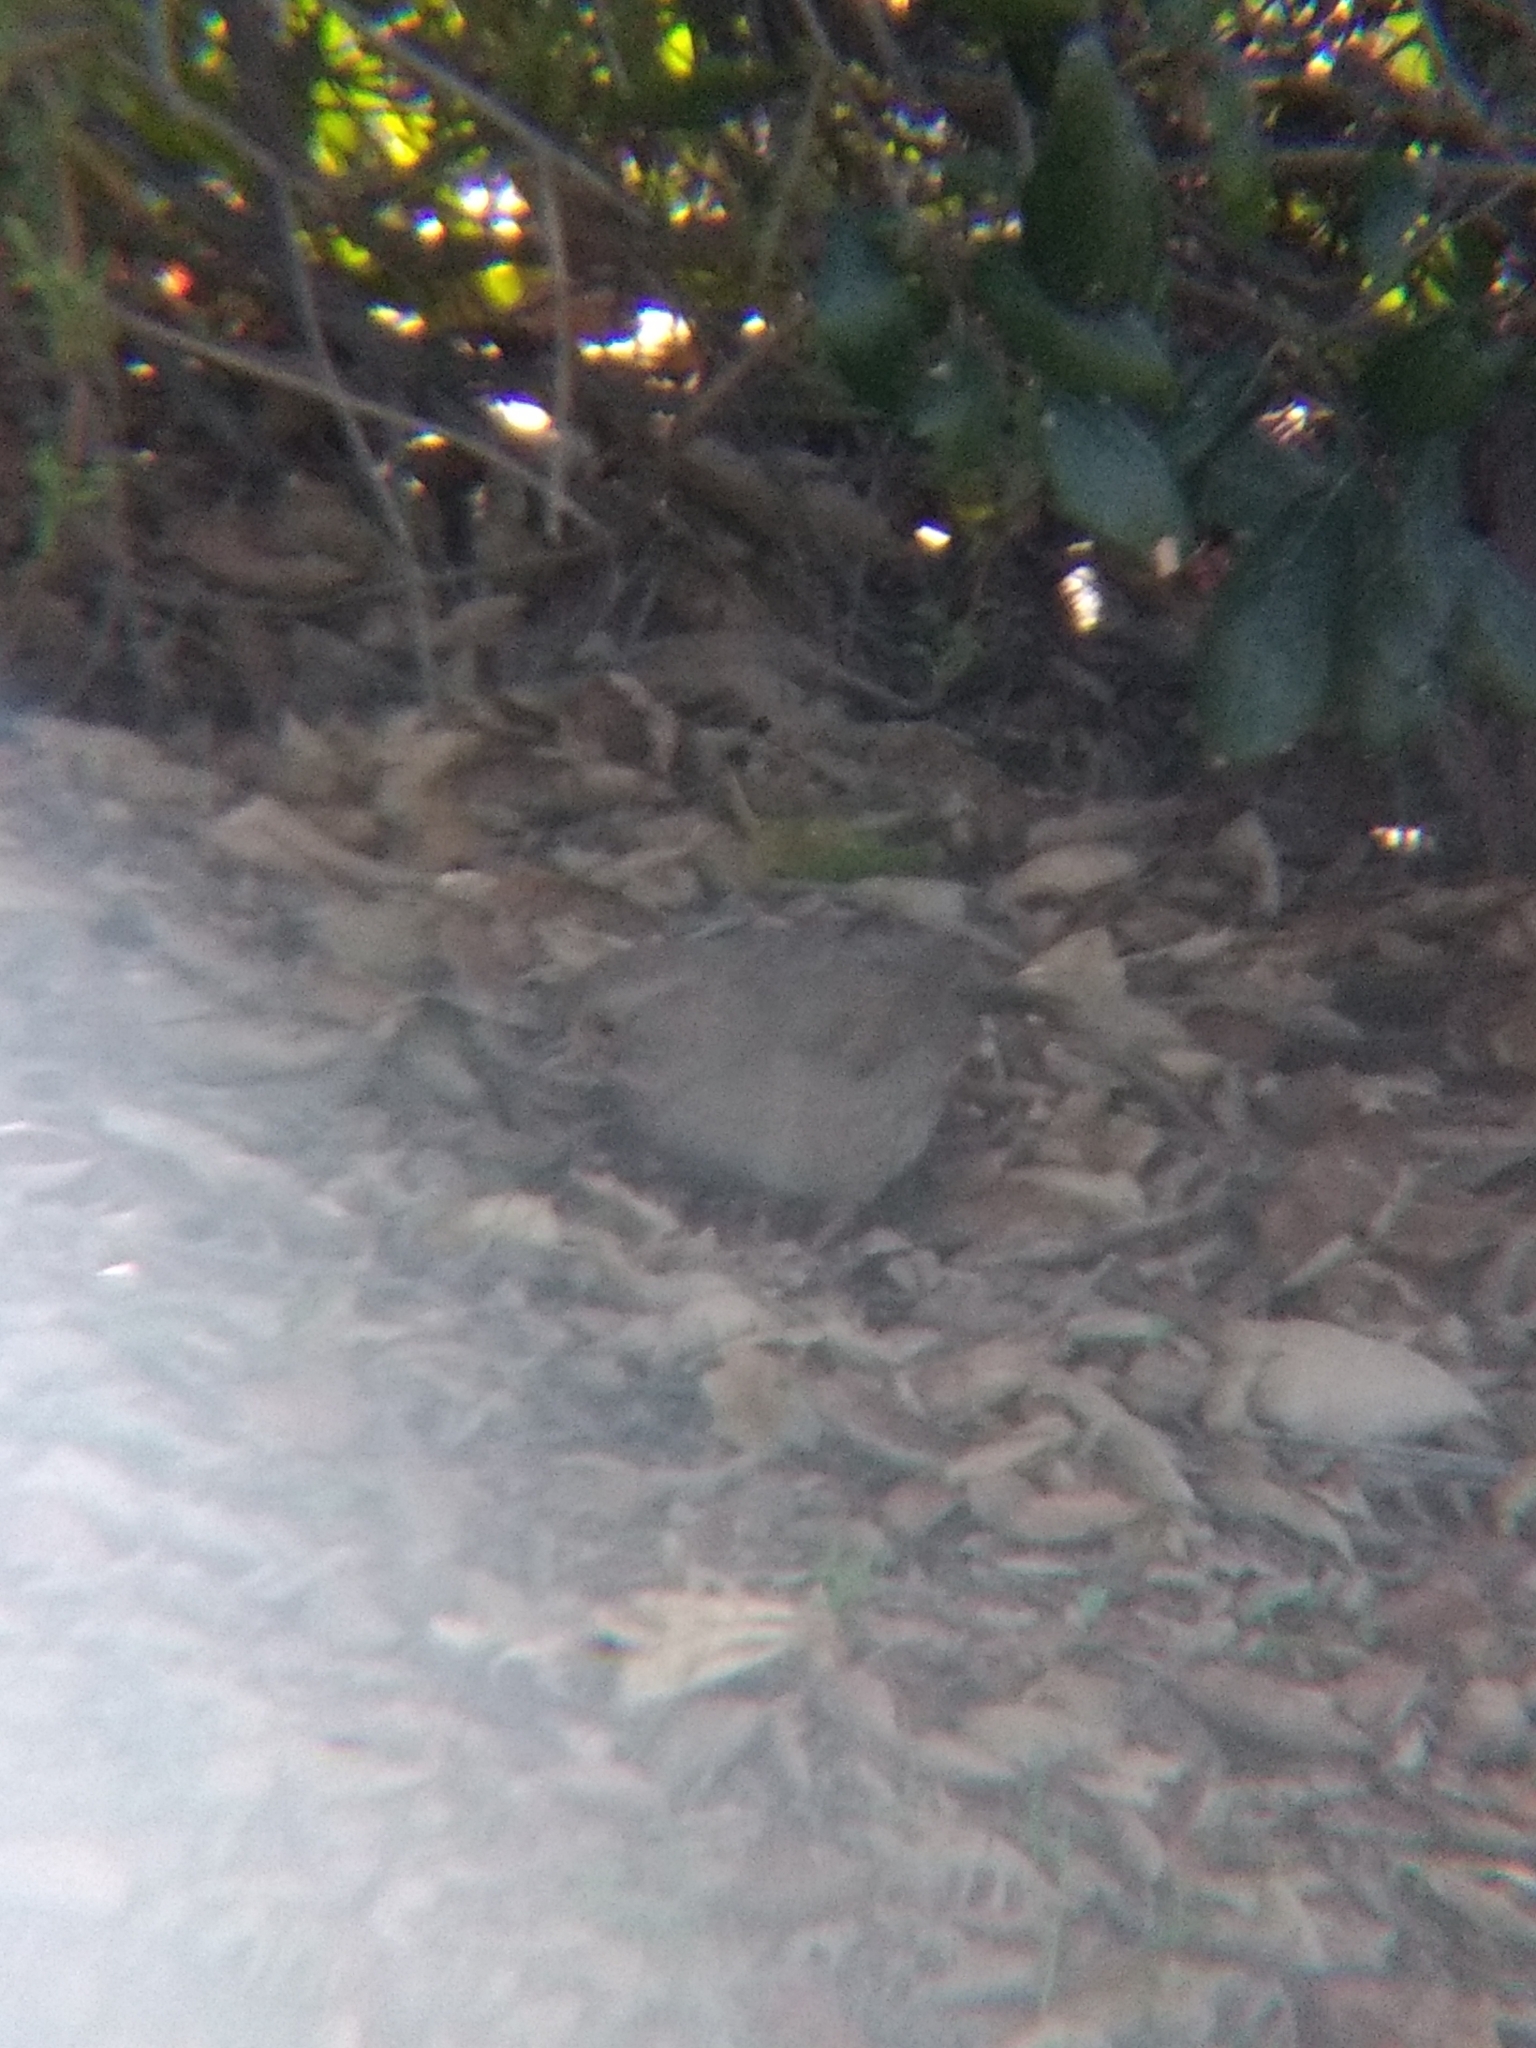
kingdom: Animalia
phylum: Chordata
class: Aves
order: Passeriformes
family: Passerellidae
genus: Melozone
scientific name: Melozone crissalis
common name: California towhee
